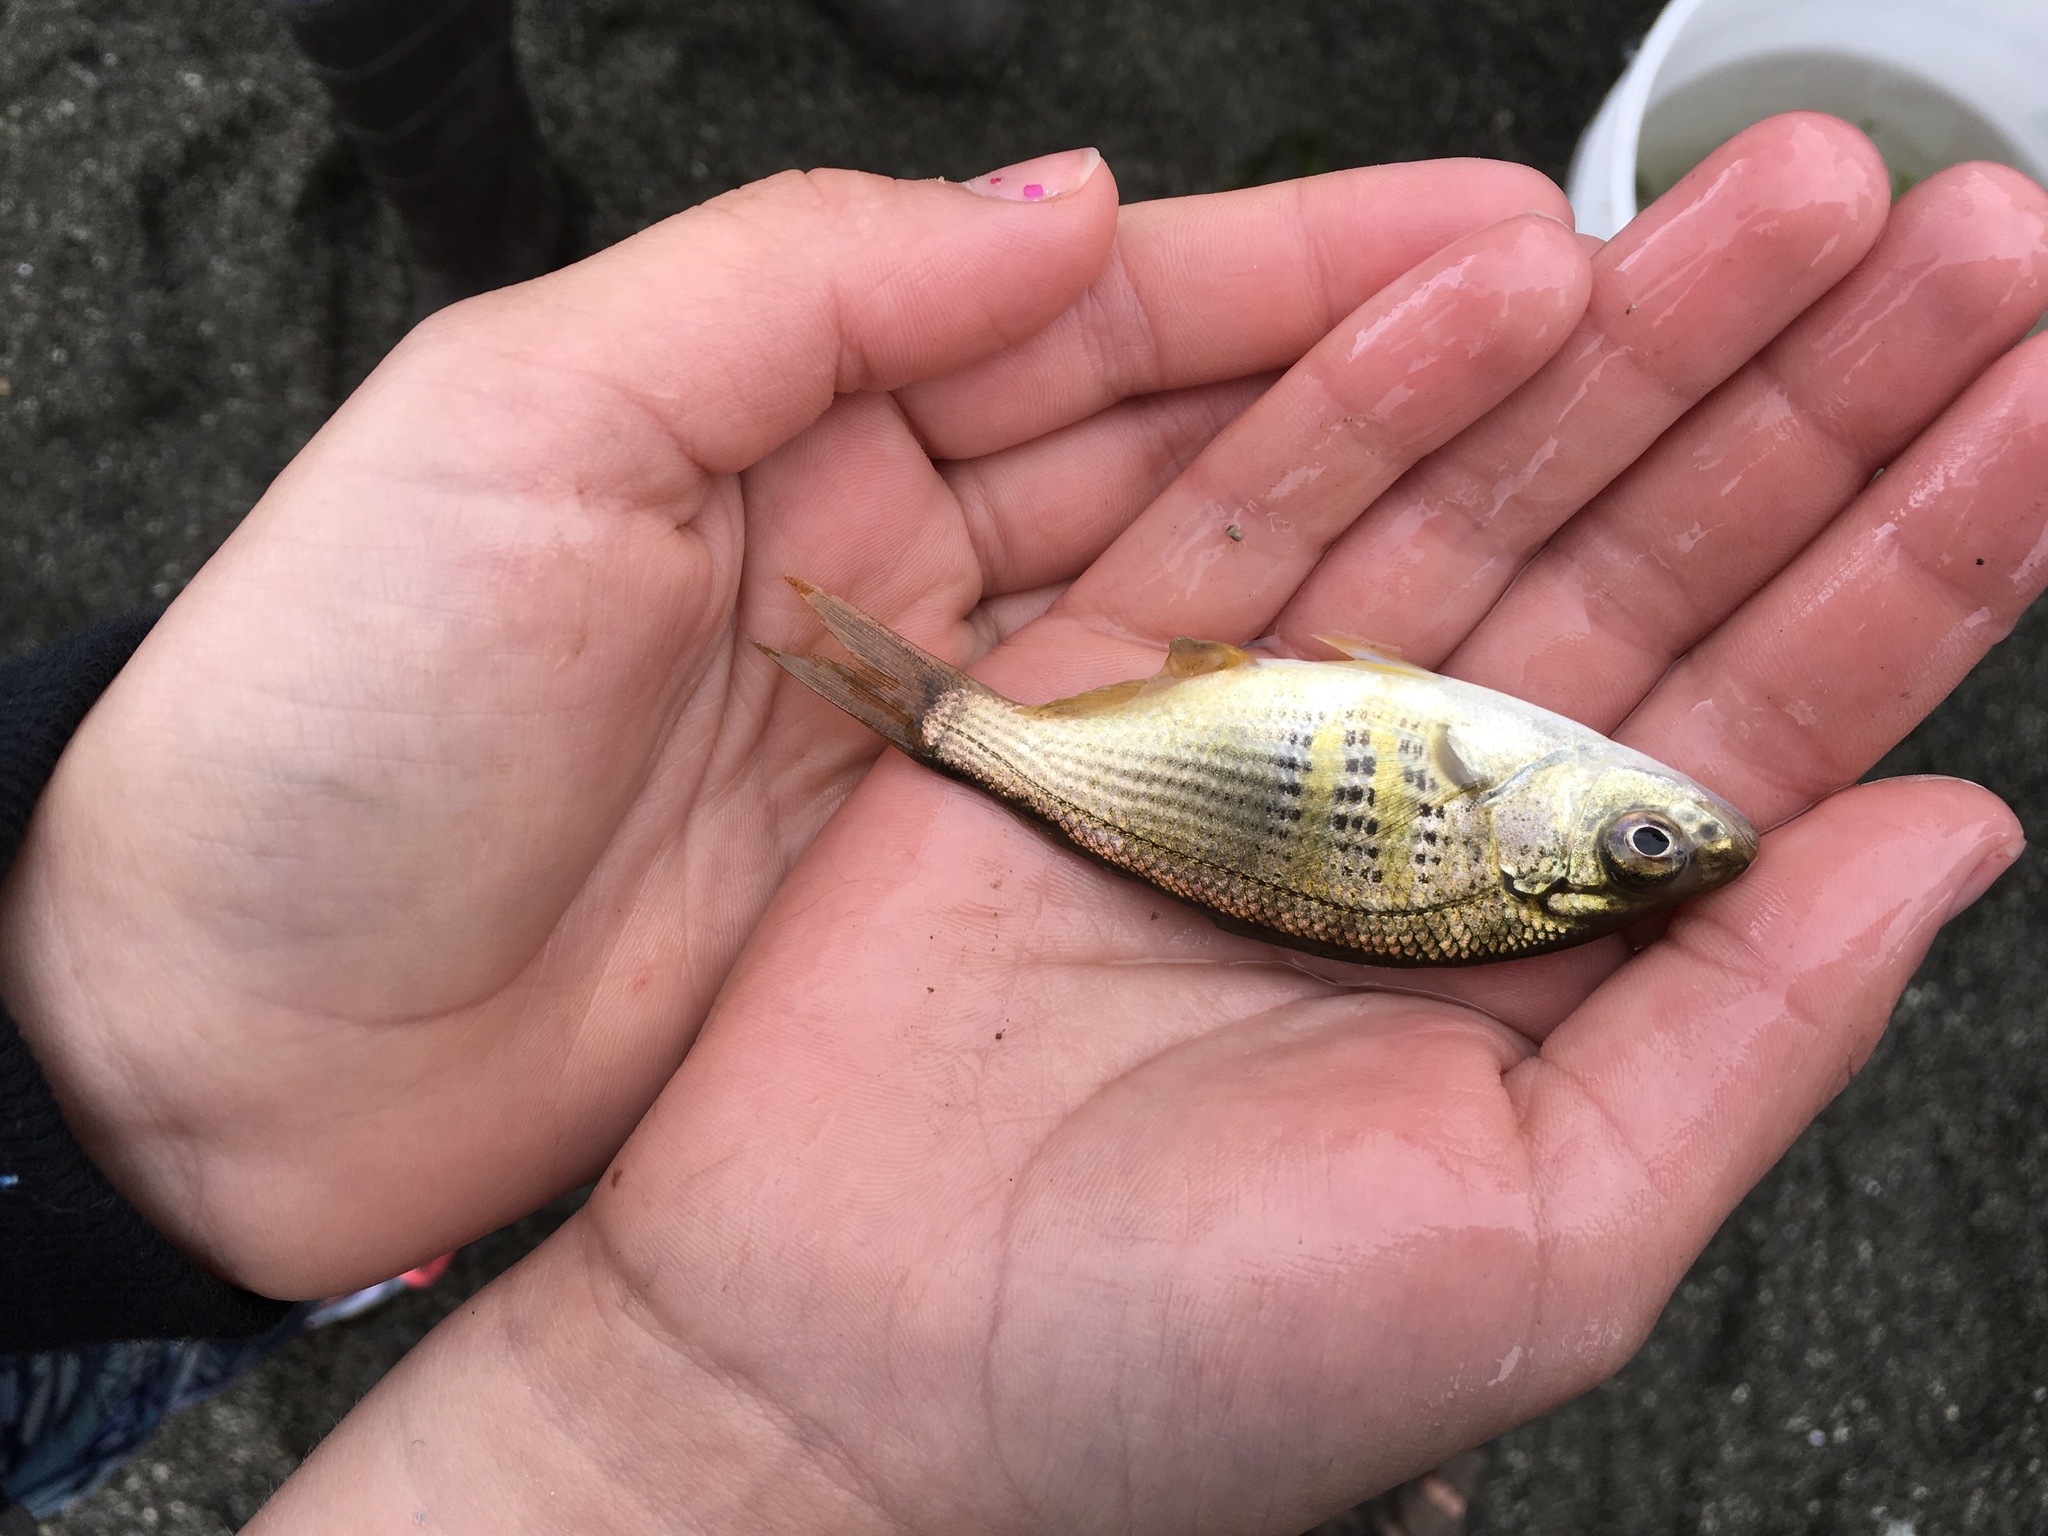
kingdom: Animalia
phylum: Chordata
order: Perciformes
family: Embiotocidae
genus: Cymatogaster
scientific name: Cymatogaster aggregata
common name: Shiner perch
